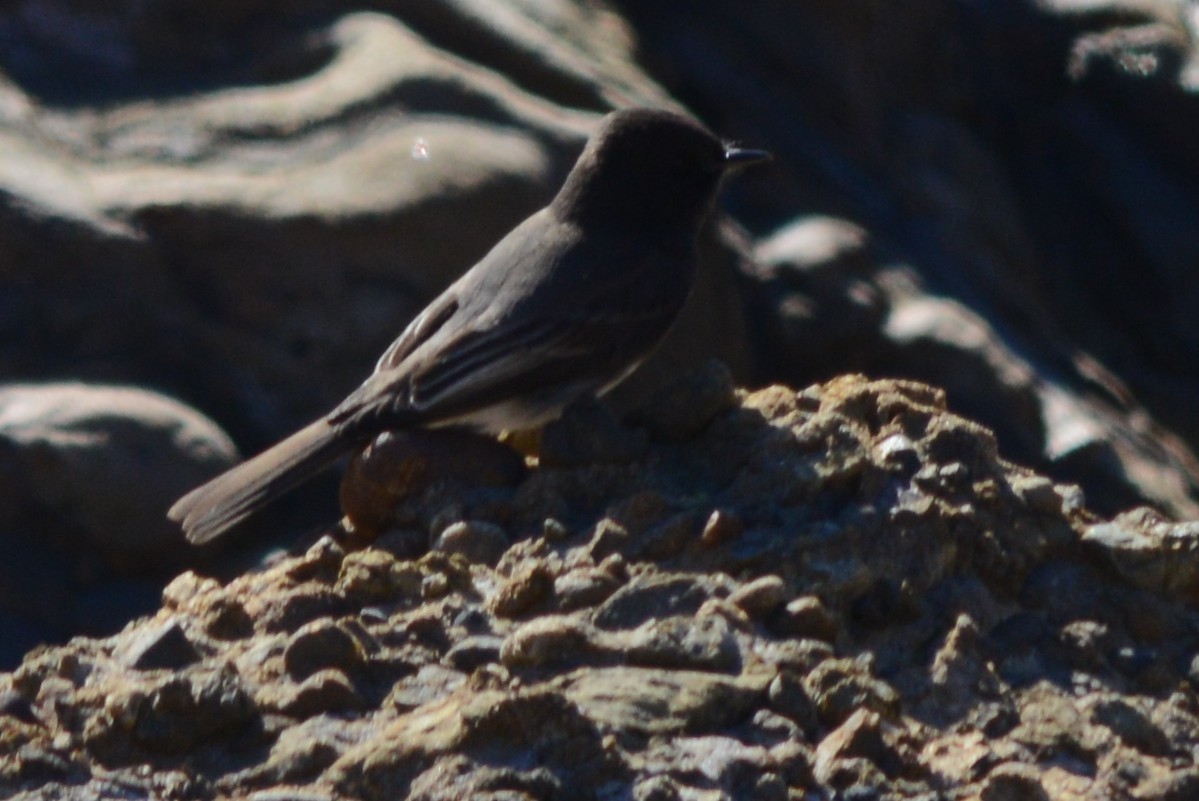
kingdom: Animalia
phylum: Chordata
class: Aves
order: Passeriformes
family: Tyrannidae
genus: Sayornis
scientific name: Sayornis nigricans
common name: Black phoebe
